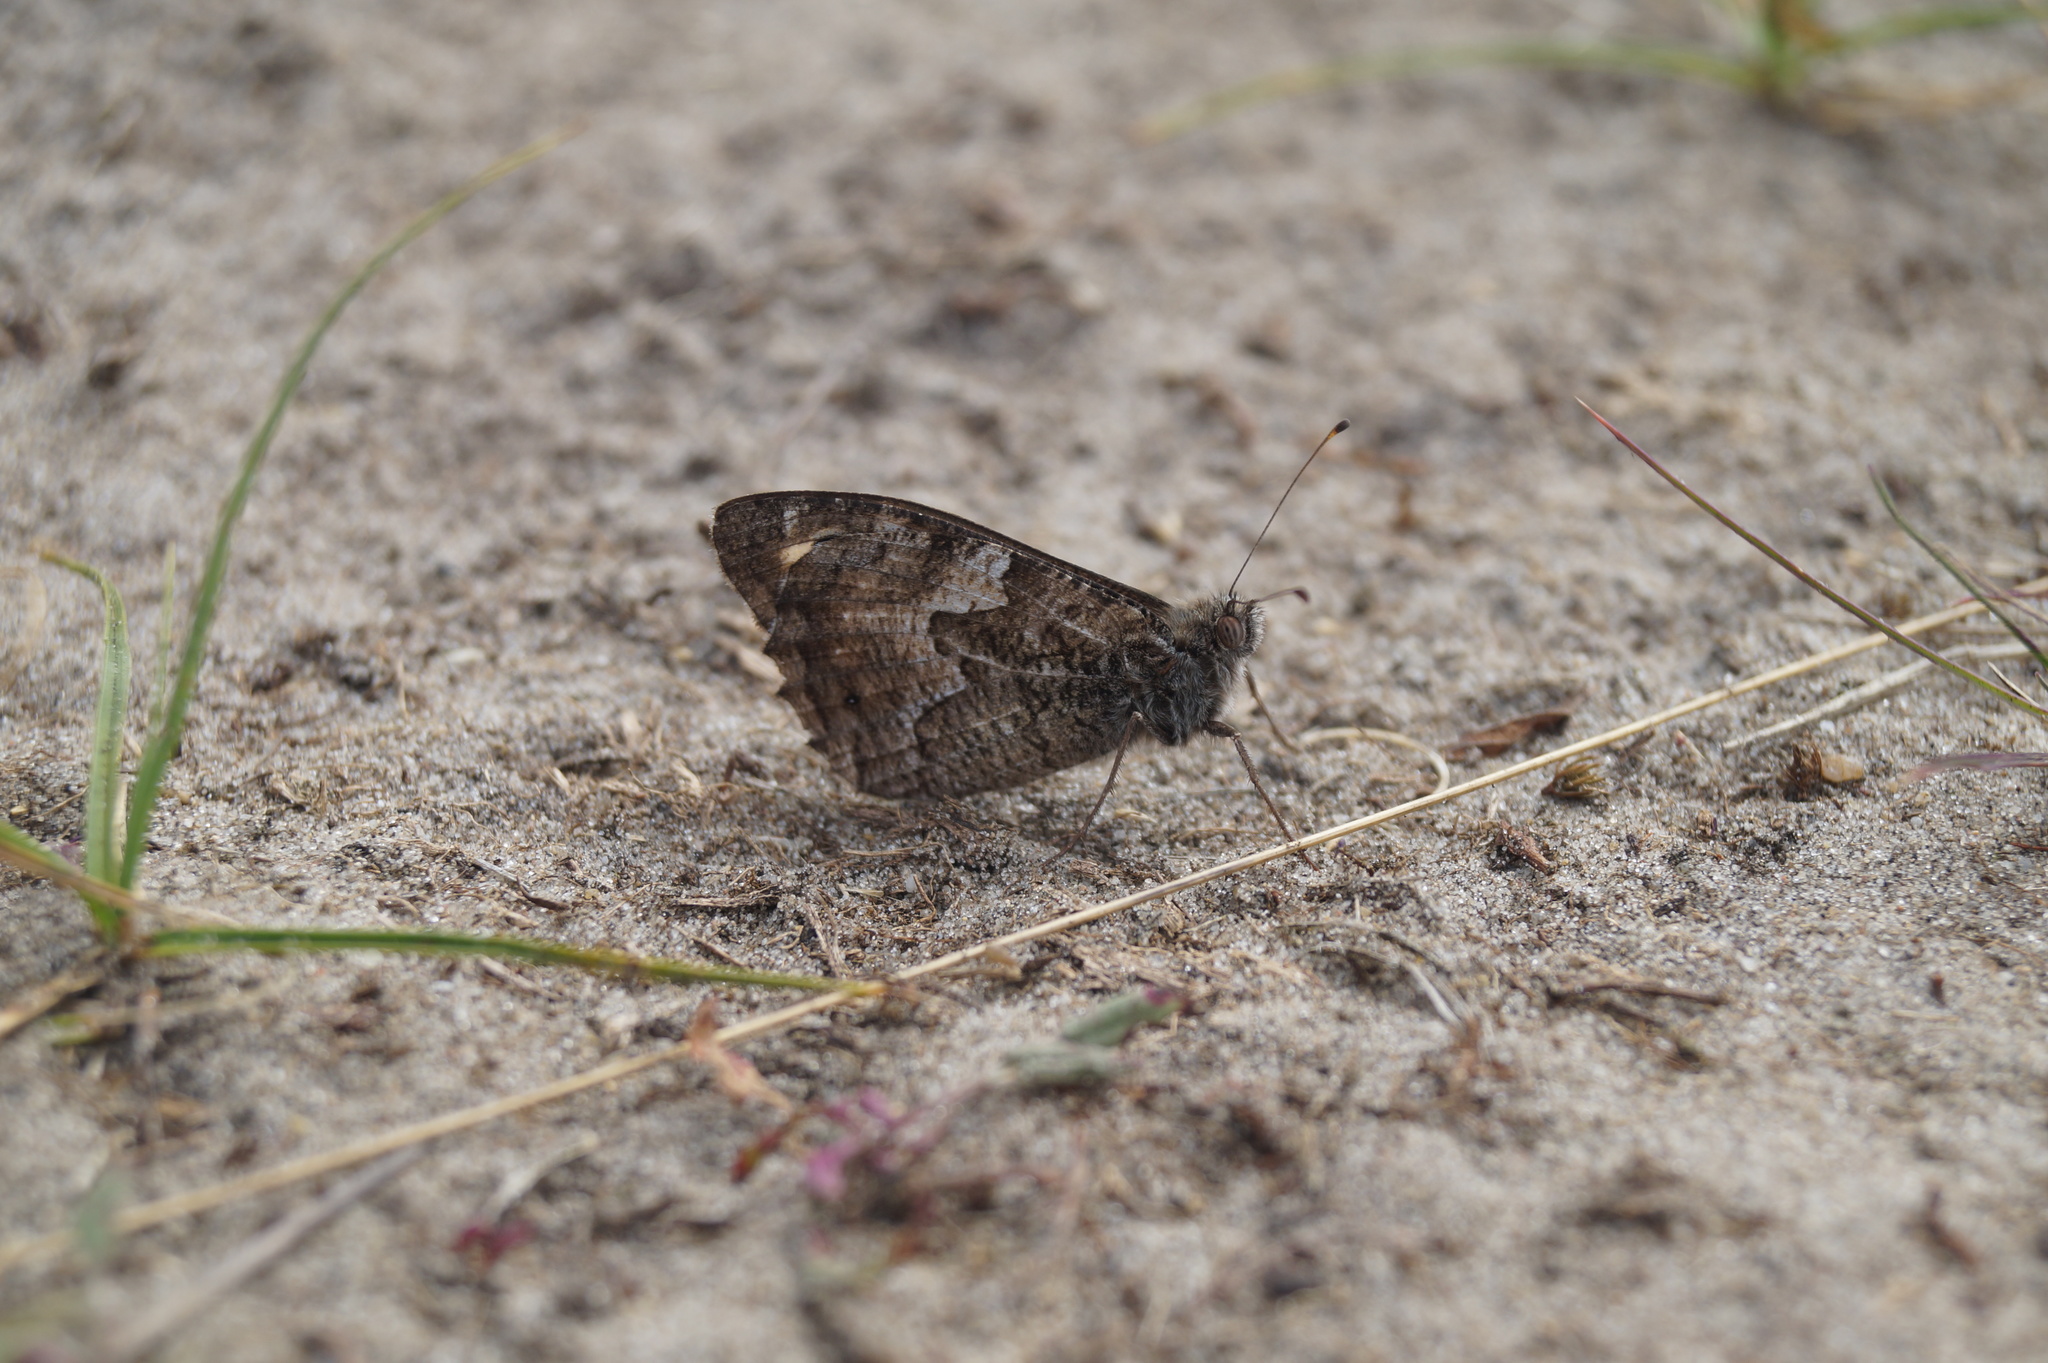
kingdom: Animalia
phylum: Arthropoda
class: Insecta
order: Lepidoptera
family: Nymphalidae
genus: Hipparchia
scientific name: Hipparchia semele
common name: Grayling
